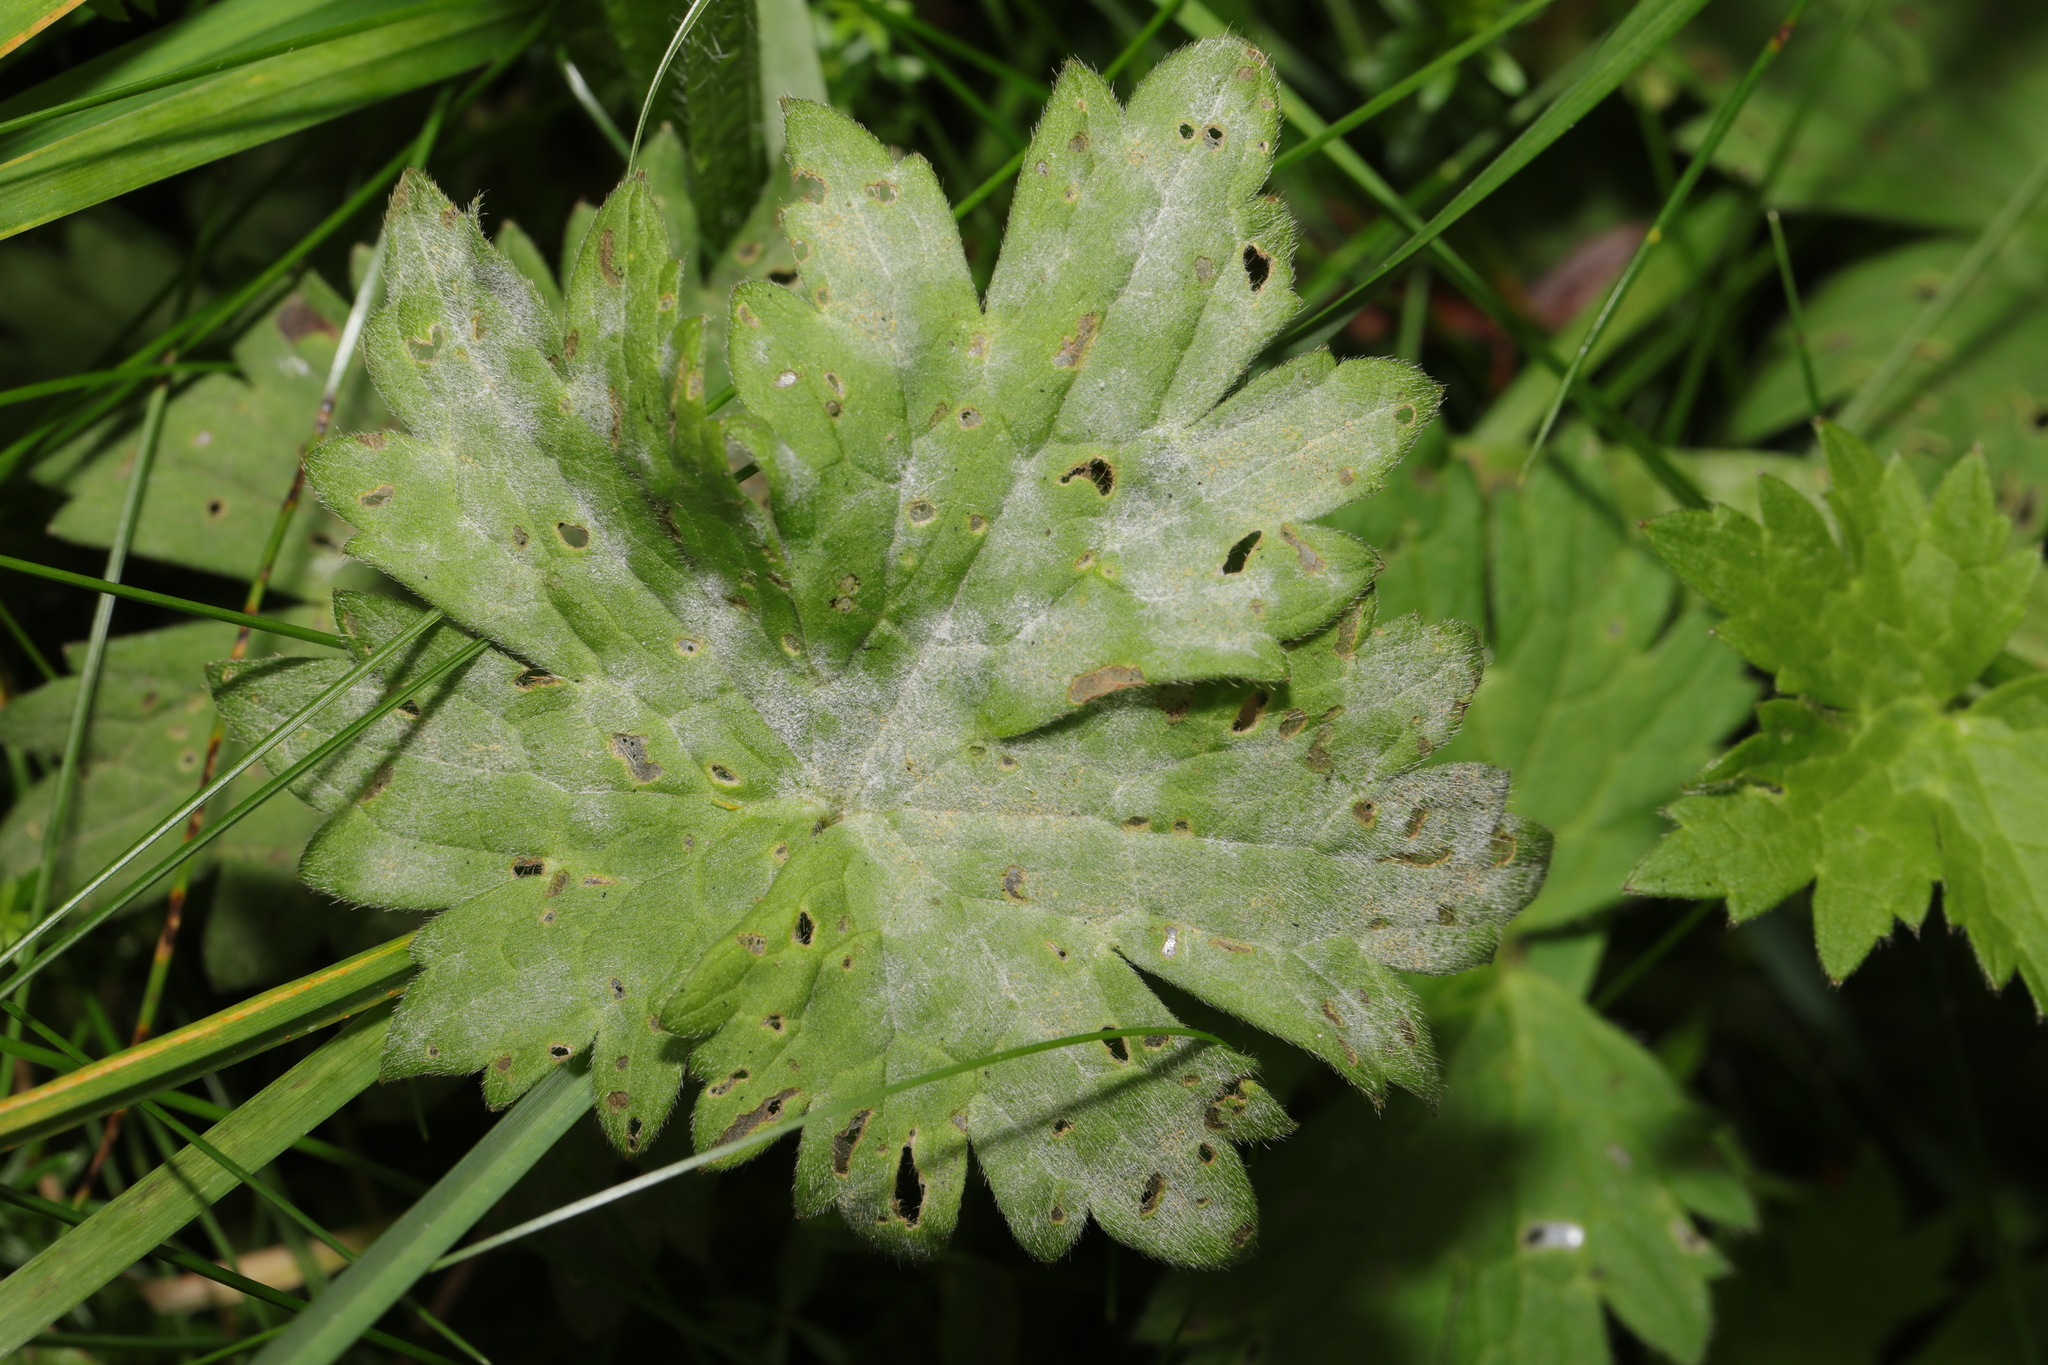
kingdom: Plantae
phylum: Tracheophyta
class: Magnoliopsida
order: Ranunculales
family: Ranunculaceae
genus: Ranunculus
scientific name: Ranunculus acris
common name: Meadow buttercup
